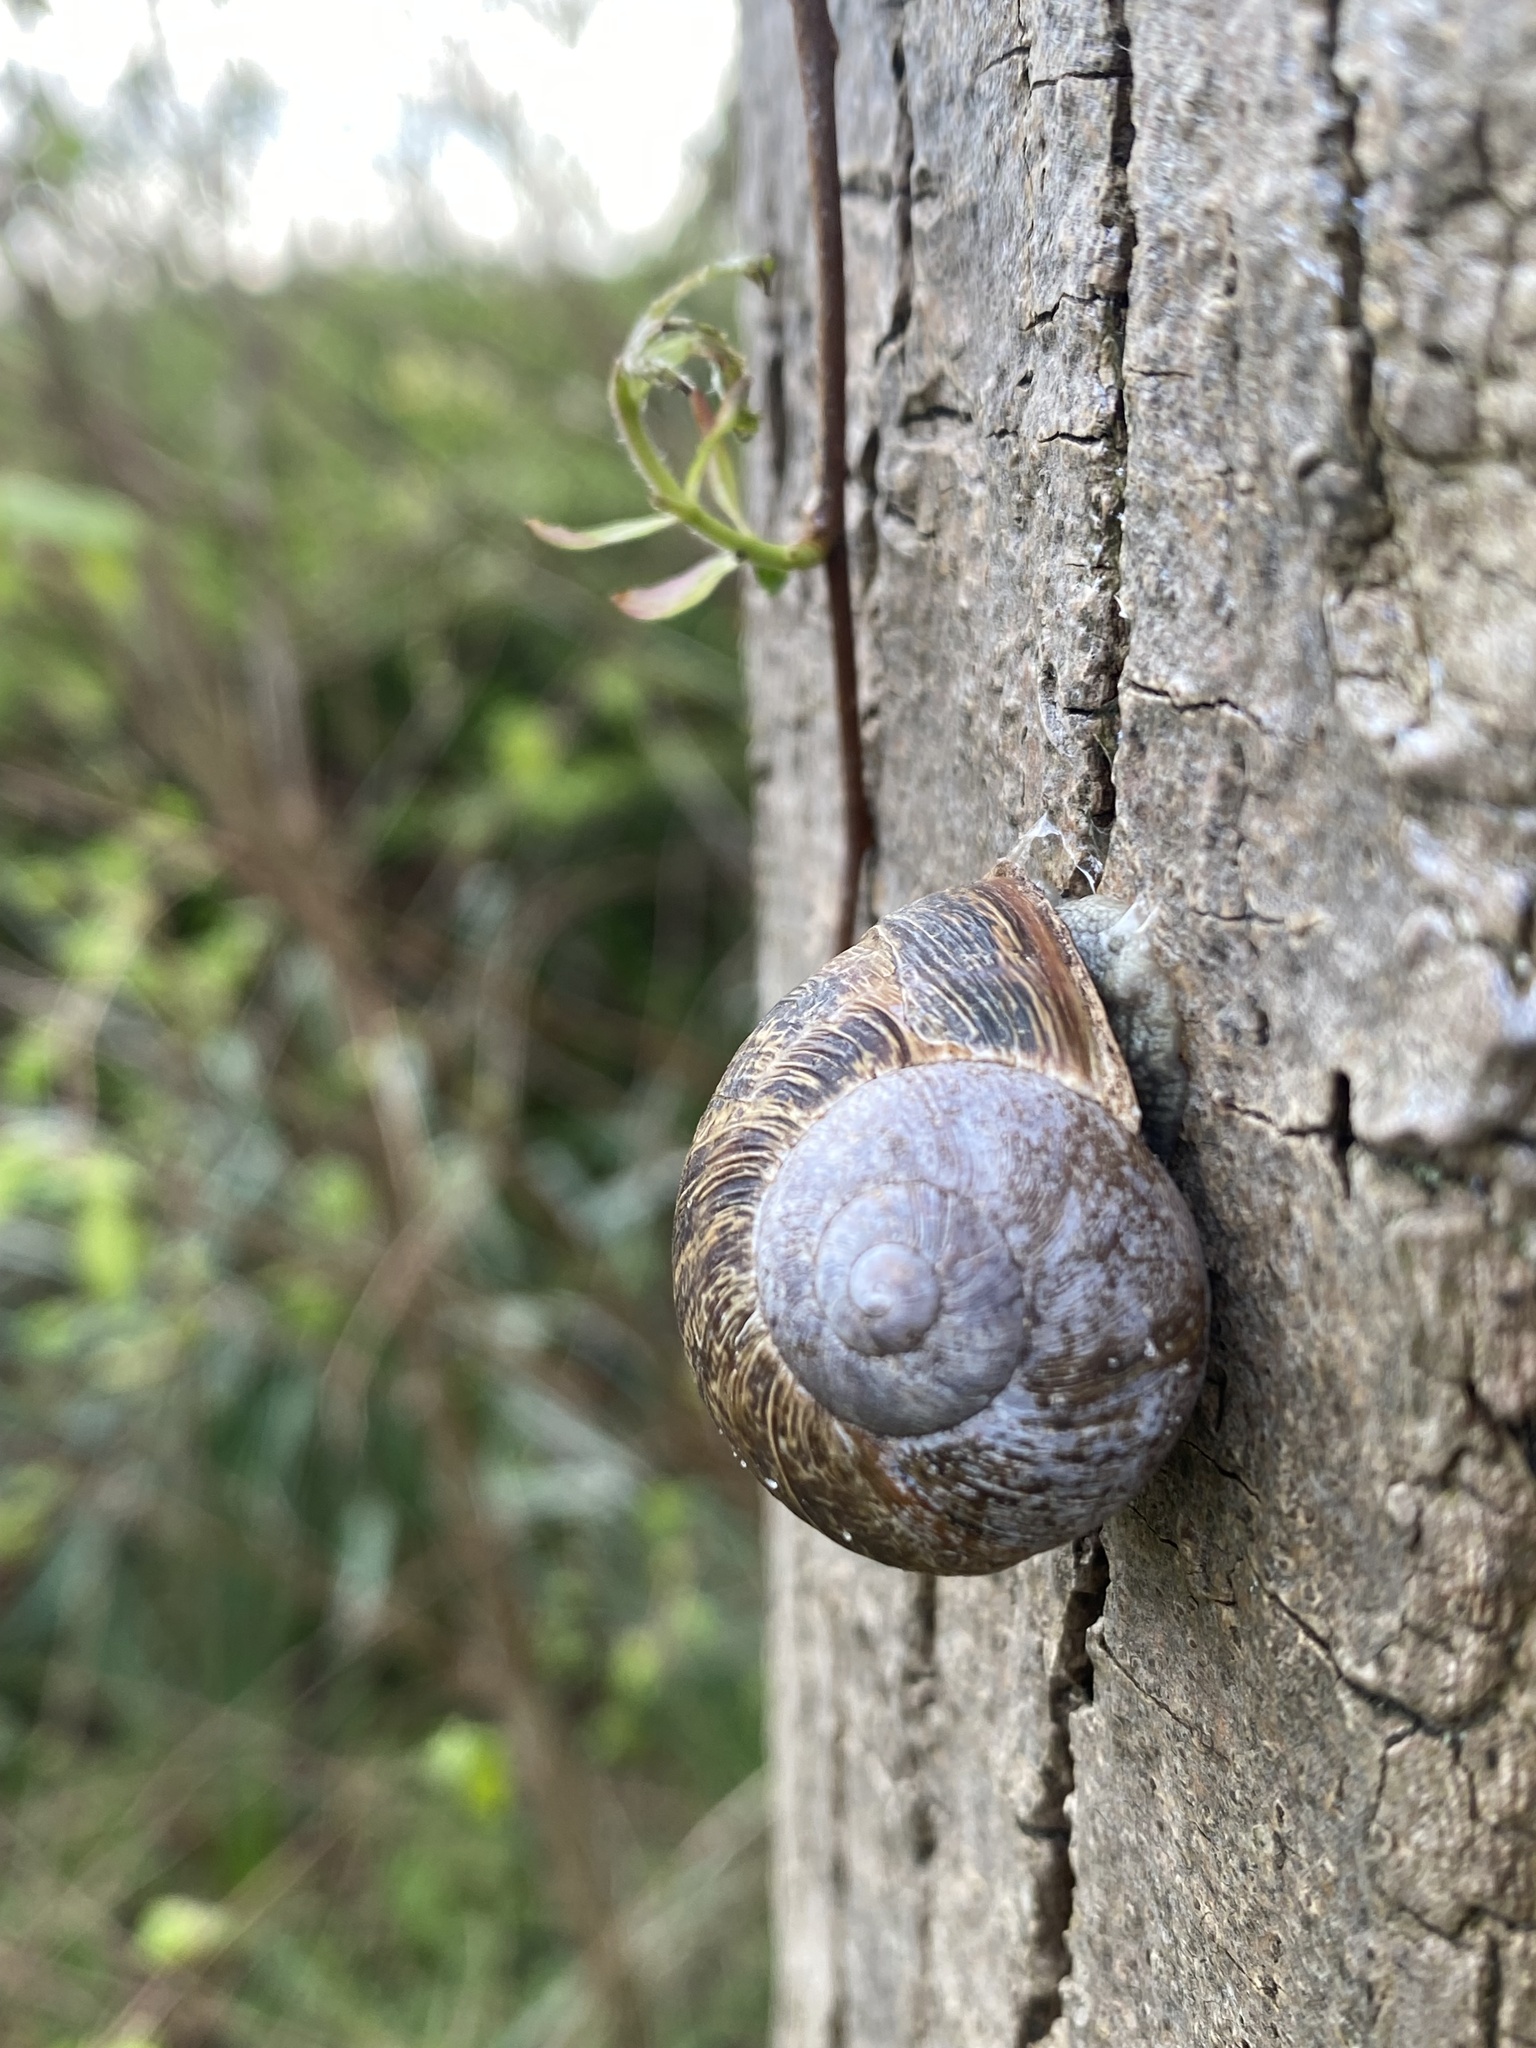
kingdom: Animalia
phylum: Mollusca
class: Gastropoda
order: Stylommatophora
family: Helicidae
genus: Cornu
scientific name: Cornu aspersum
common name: Brown garden snail
